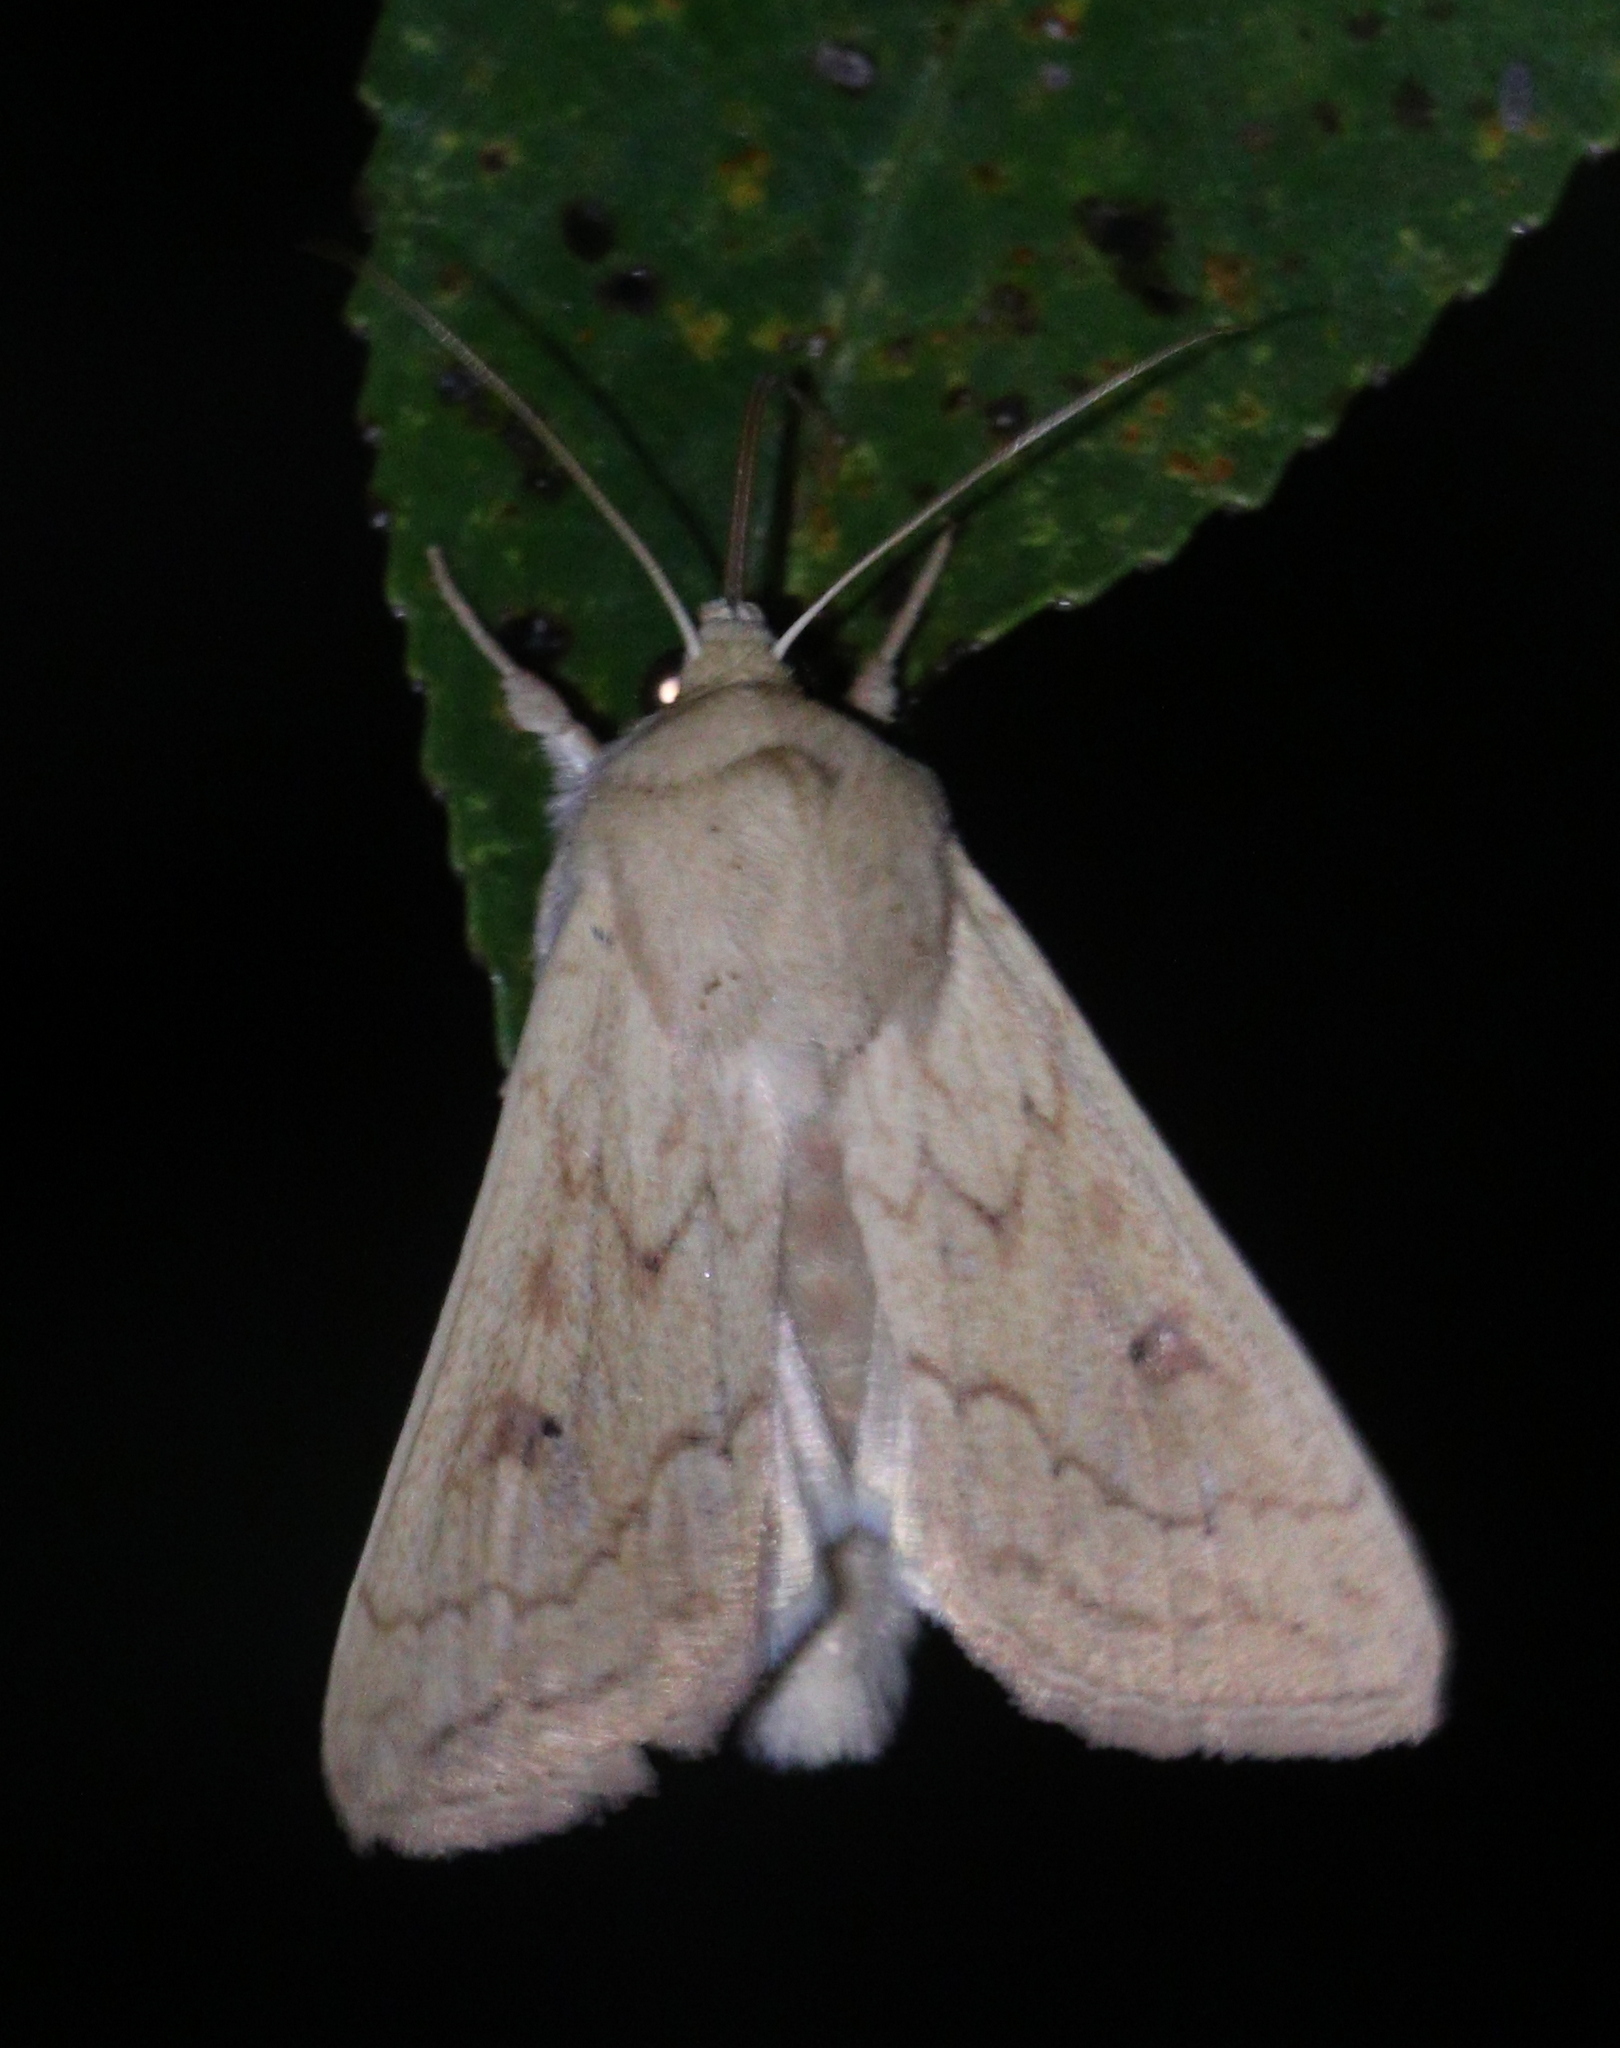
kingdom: Animalia
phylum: Arthropoda
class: Insecta
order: Lepidoptera
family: Noctuidae
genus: Mythimna
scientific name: Mythimna vitellina
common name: Delicate
